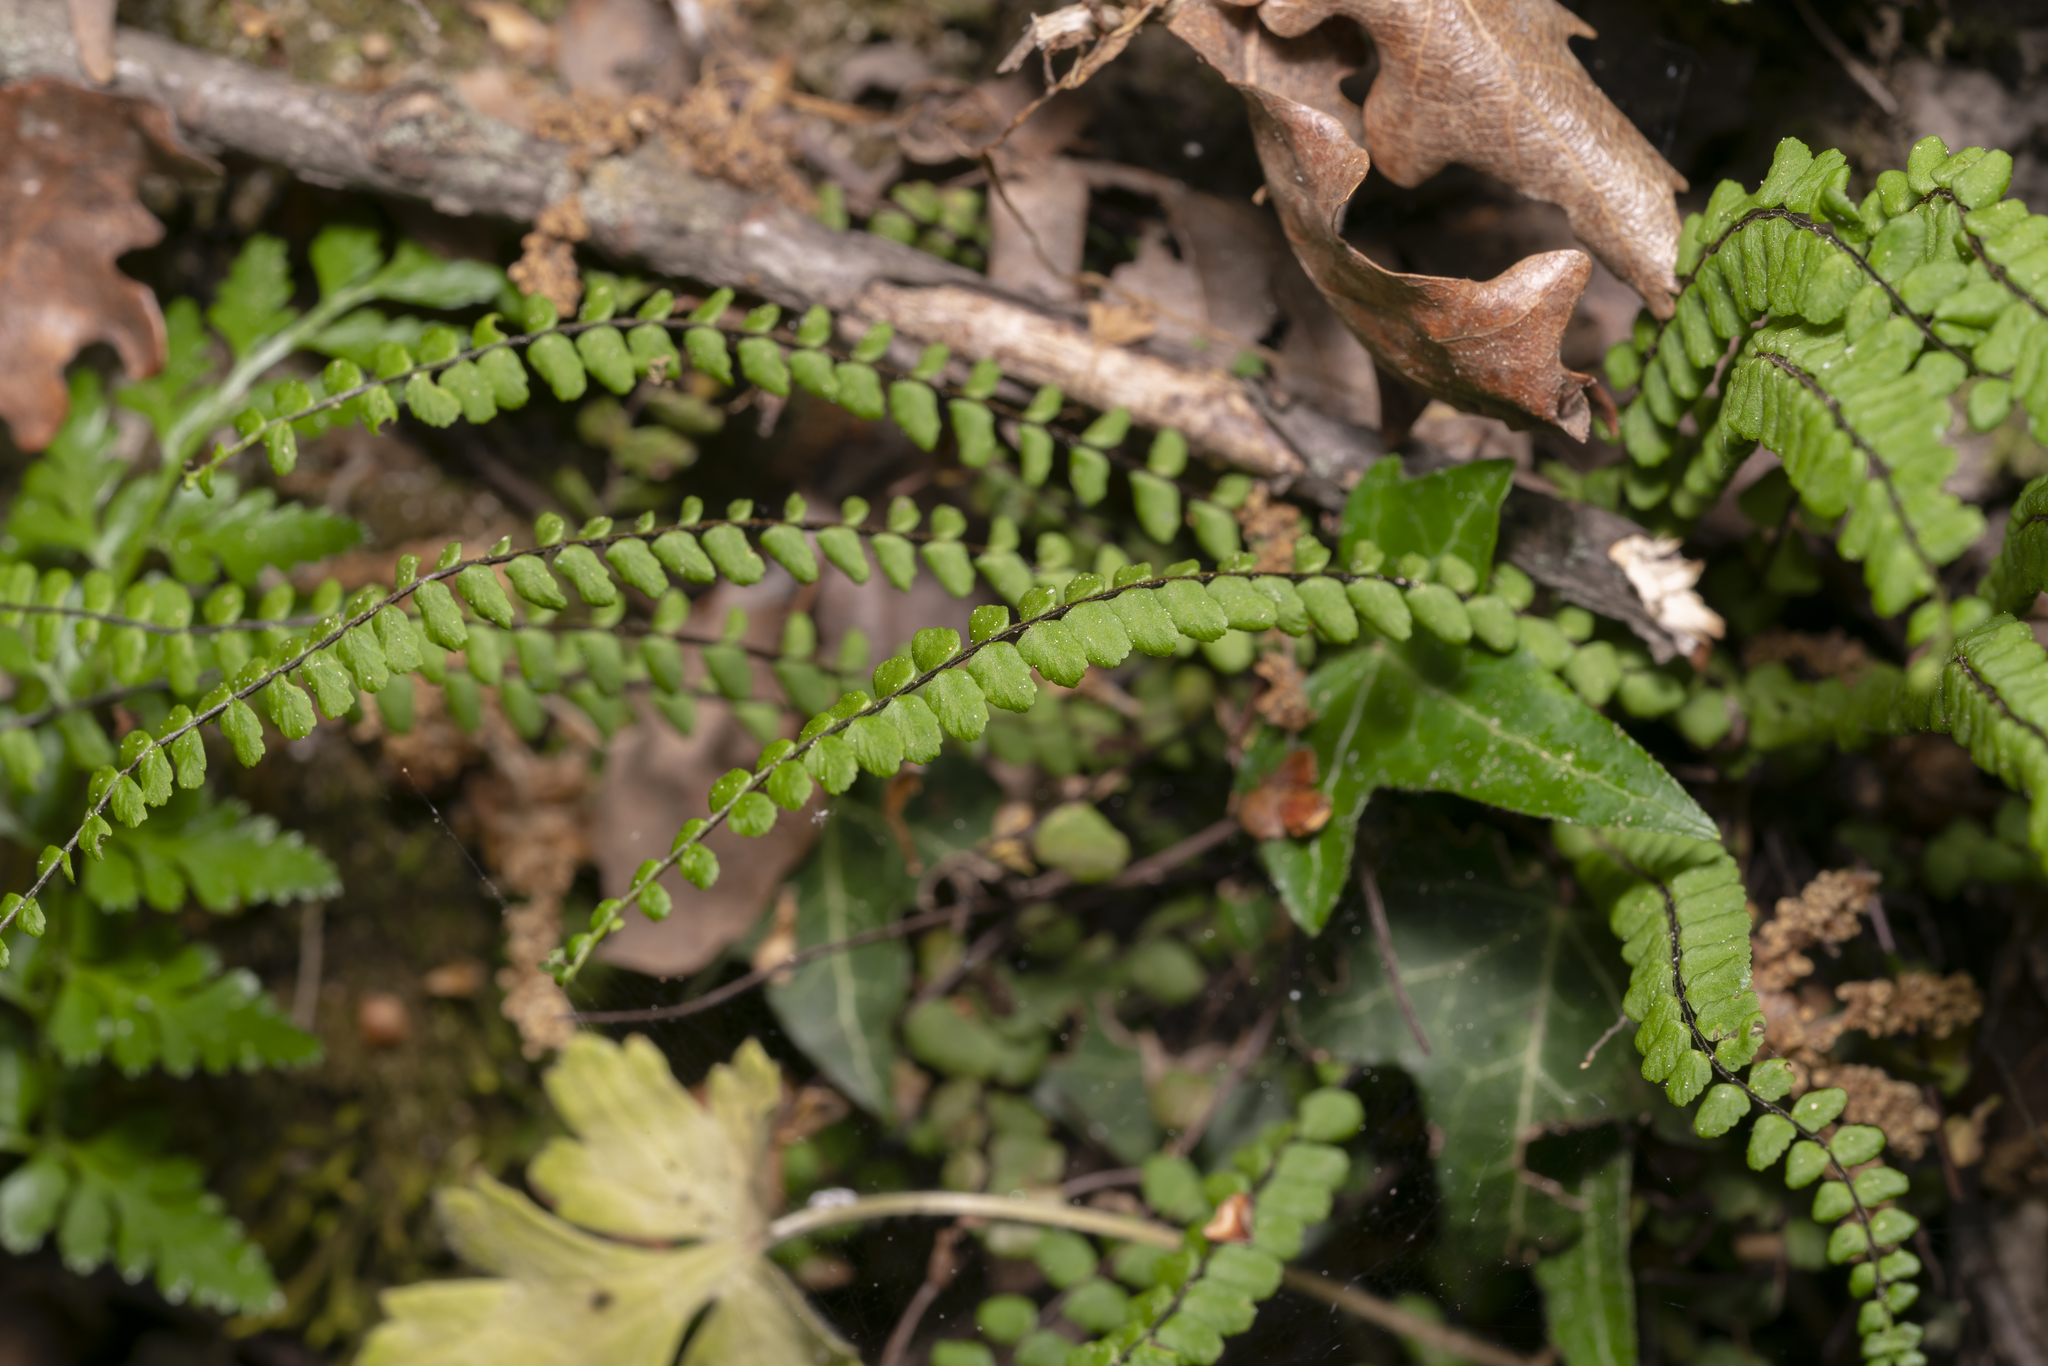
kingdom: Plantae
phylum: Tracheophyta
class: Polypodiopsida
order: Polypodiales
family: Aspleniaceae
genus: Asplenium
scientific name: Asplenium trichomanes
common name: Maidenhair spleenwort
